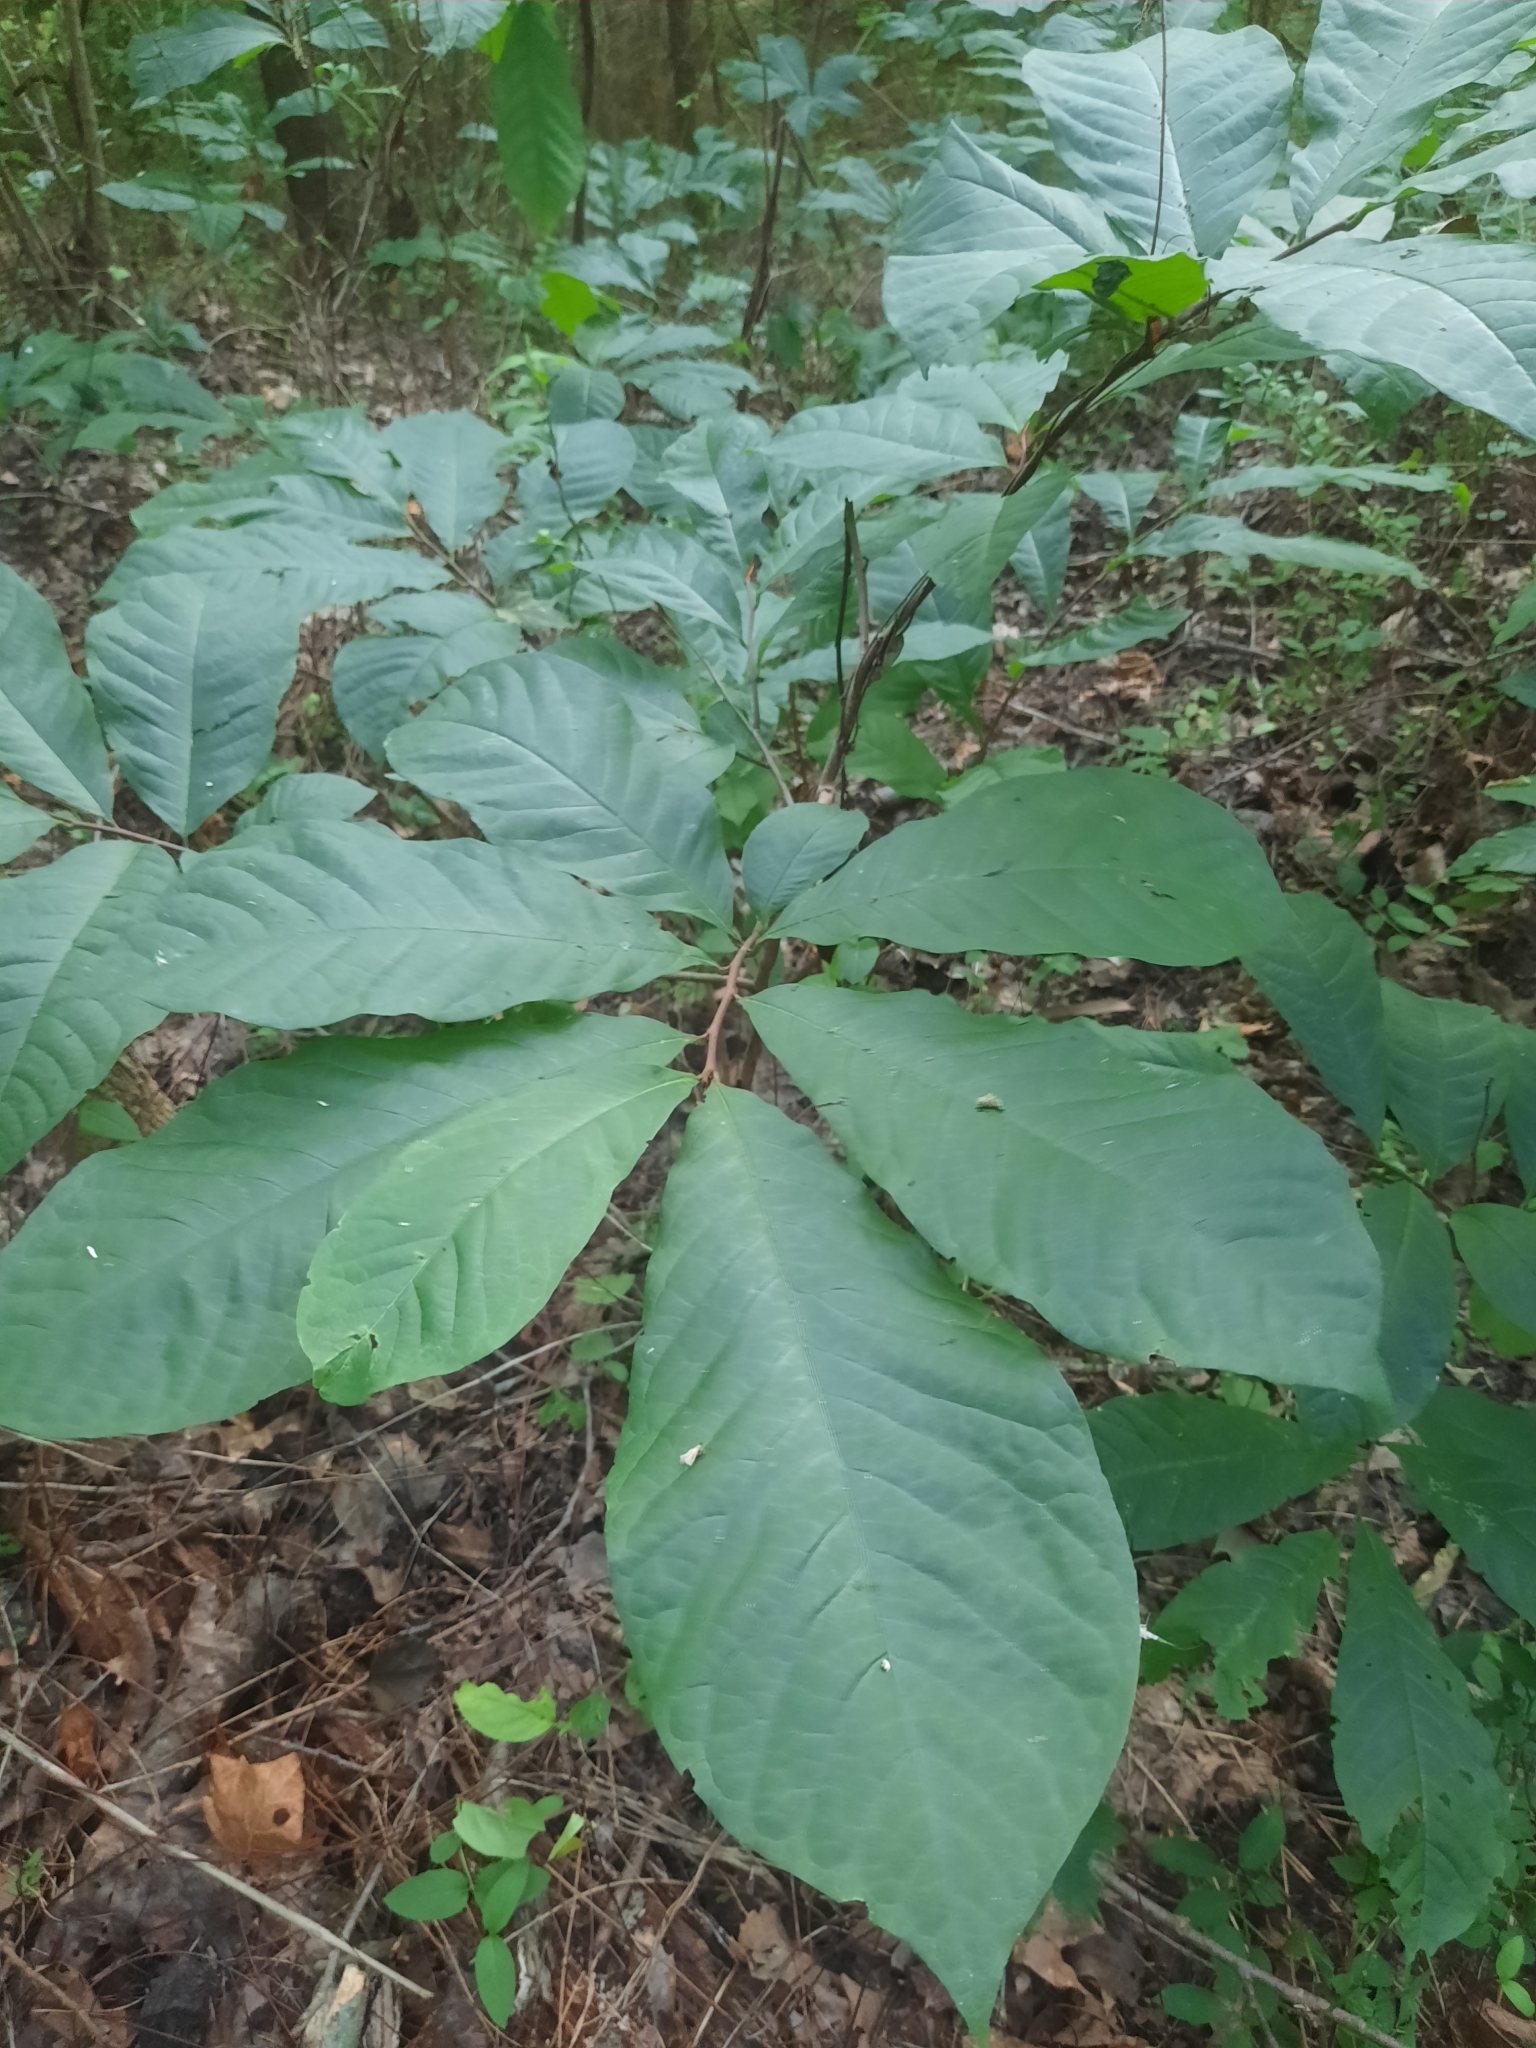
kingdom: Plantae
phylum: Tracheophyta
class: Magnoliopsida
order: Magnoliales
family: Annonaceae
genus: Asimina
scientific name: Asimina triloba
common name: Dog-banana
